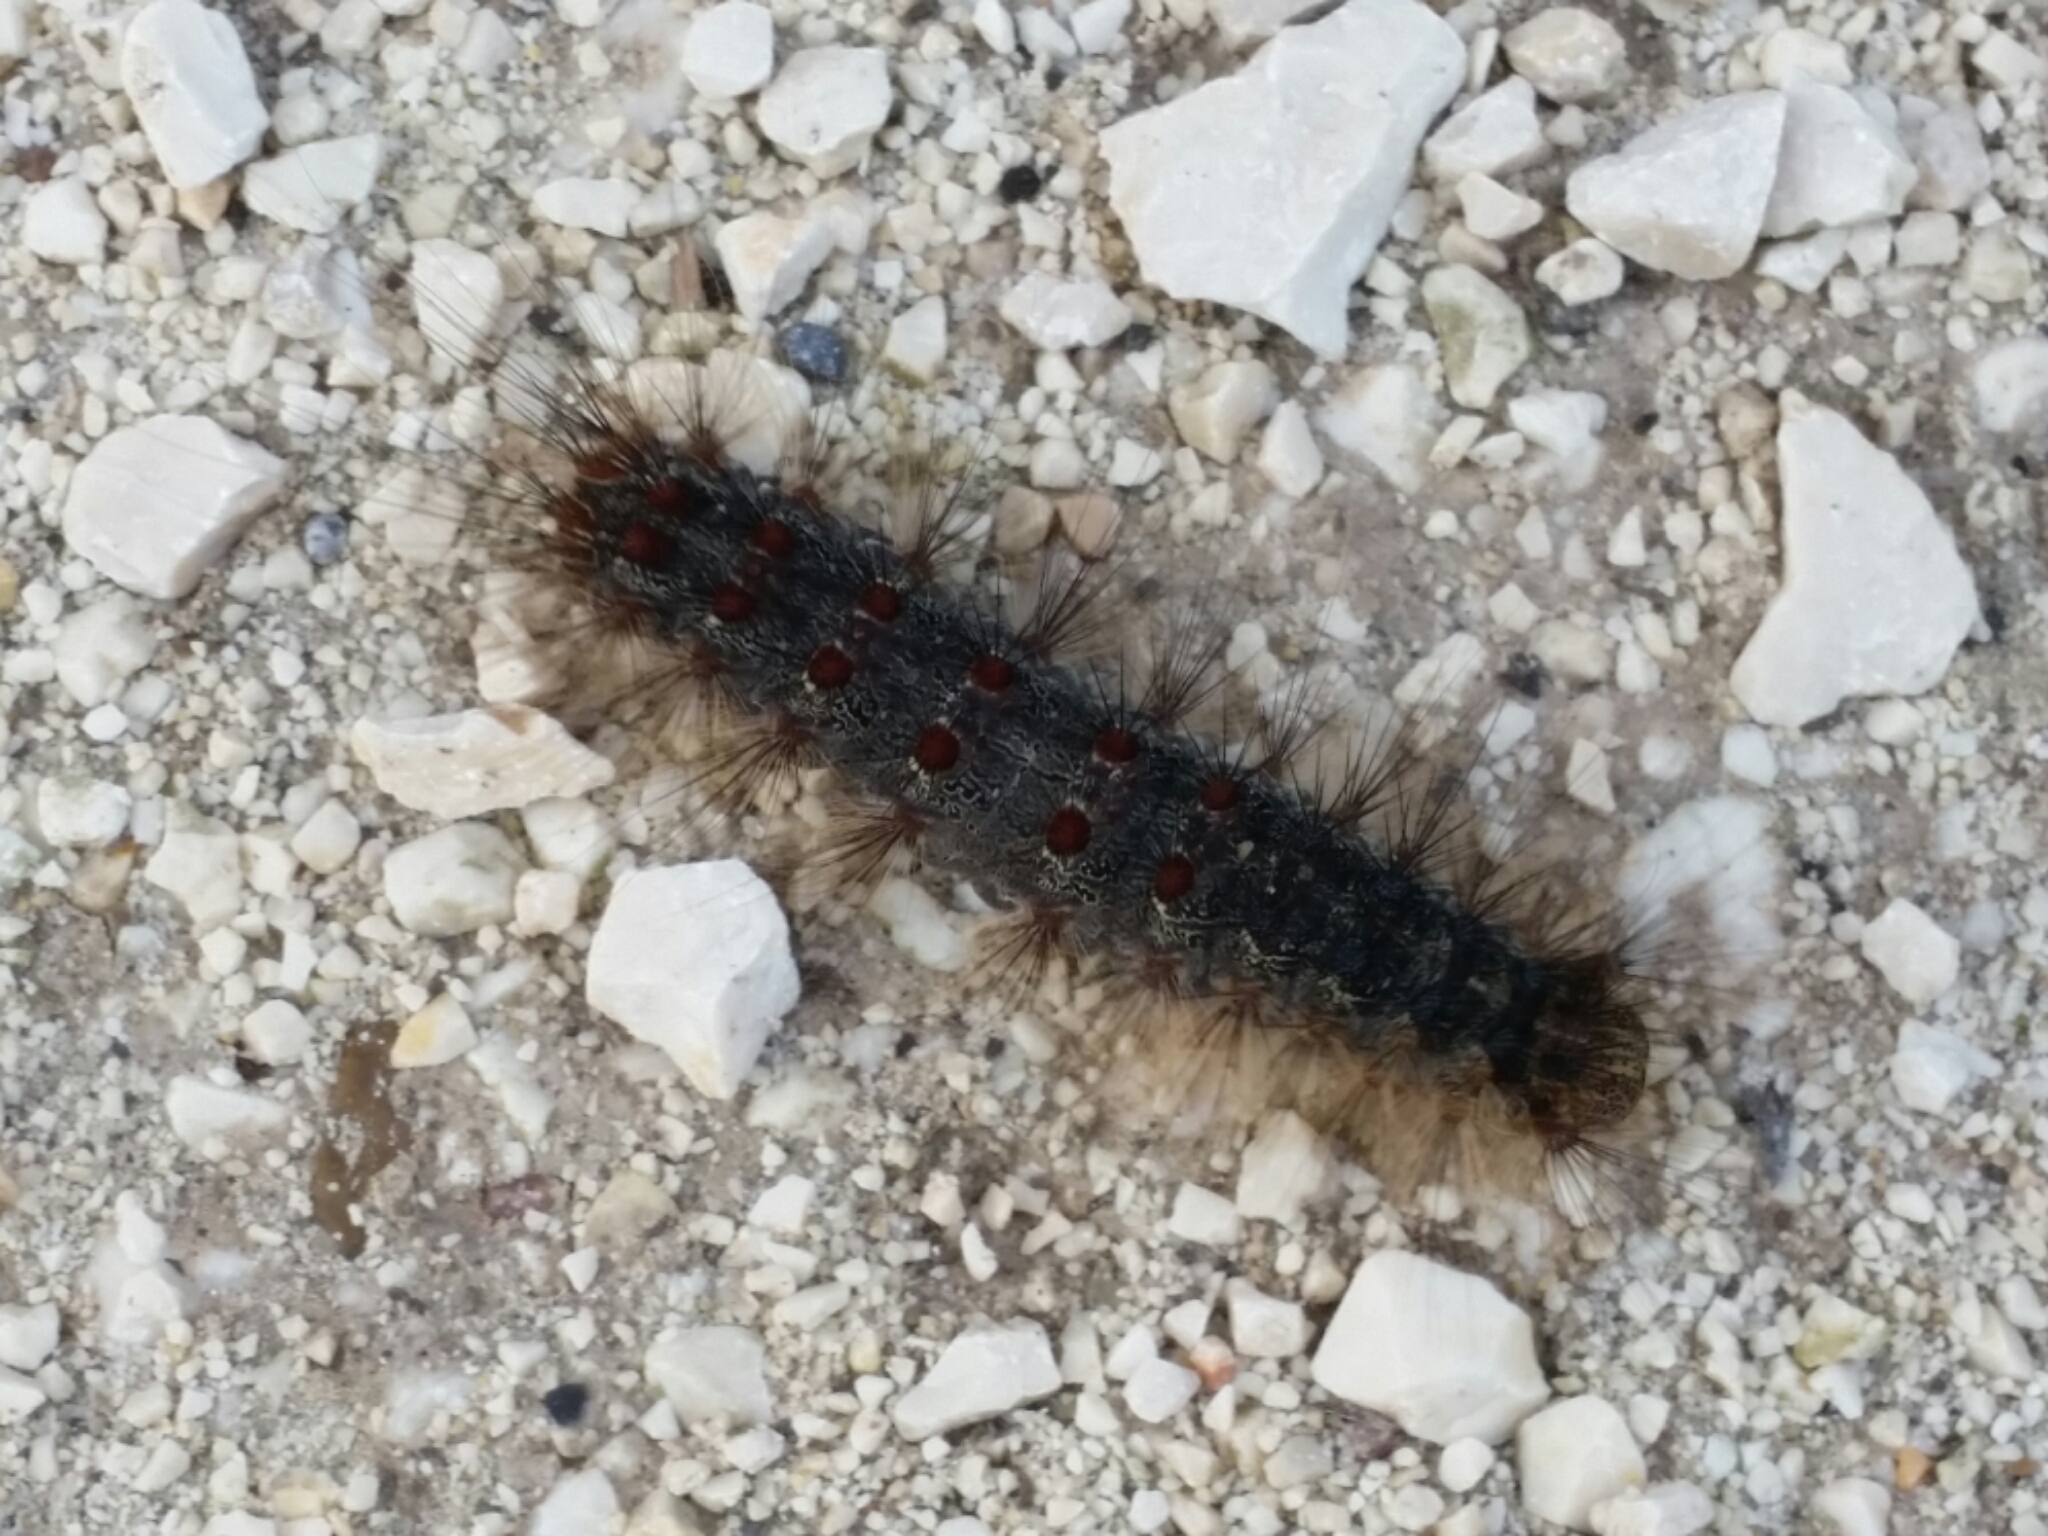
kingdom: Animalia
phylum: Arthropoda
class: Insecta
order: Lepidoptera
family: Erebidae
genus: Lymantria
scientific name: Lymantria dispar
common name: Gypsy moth
